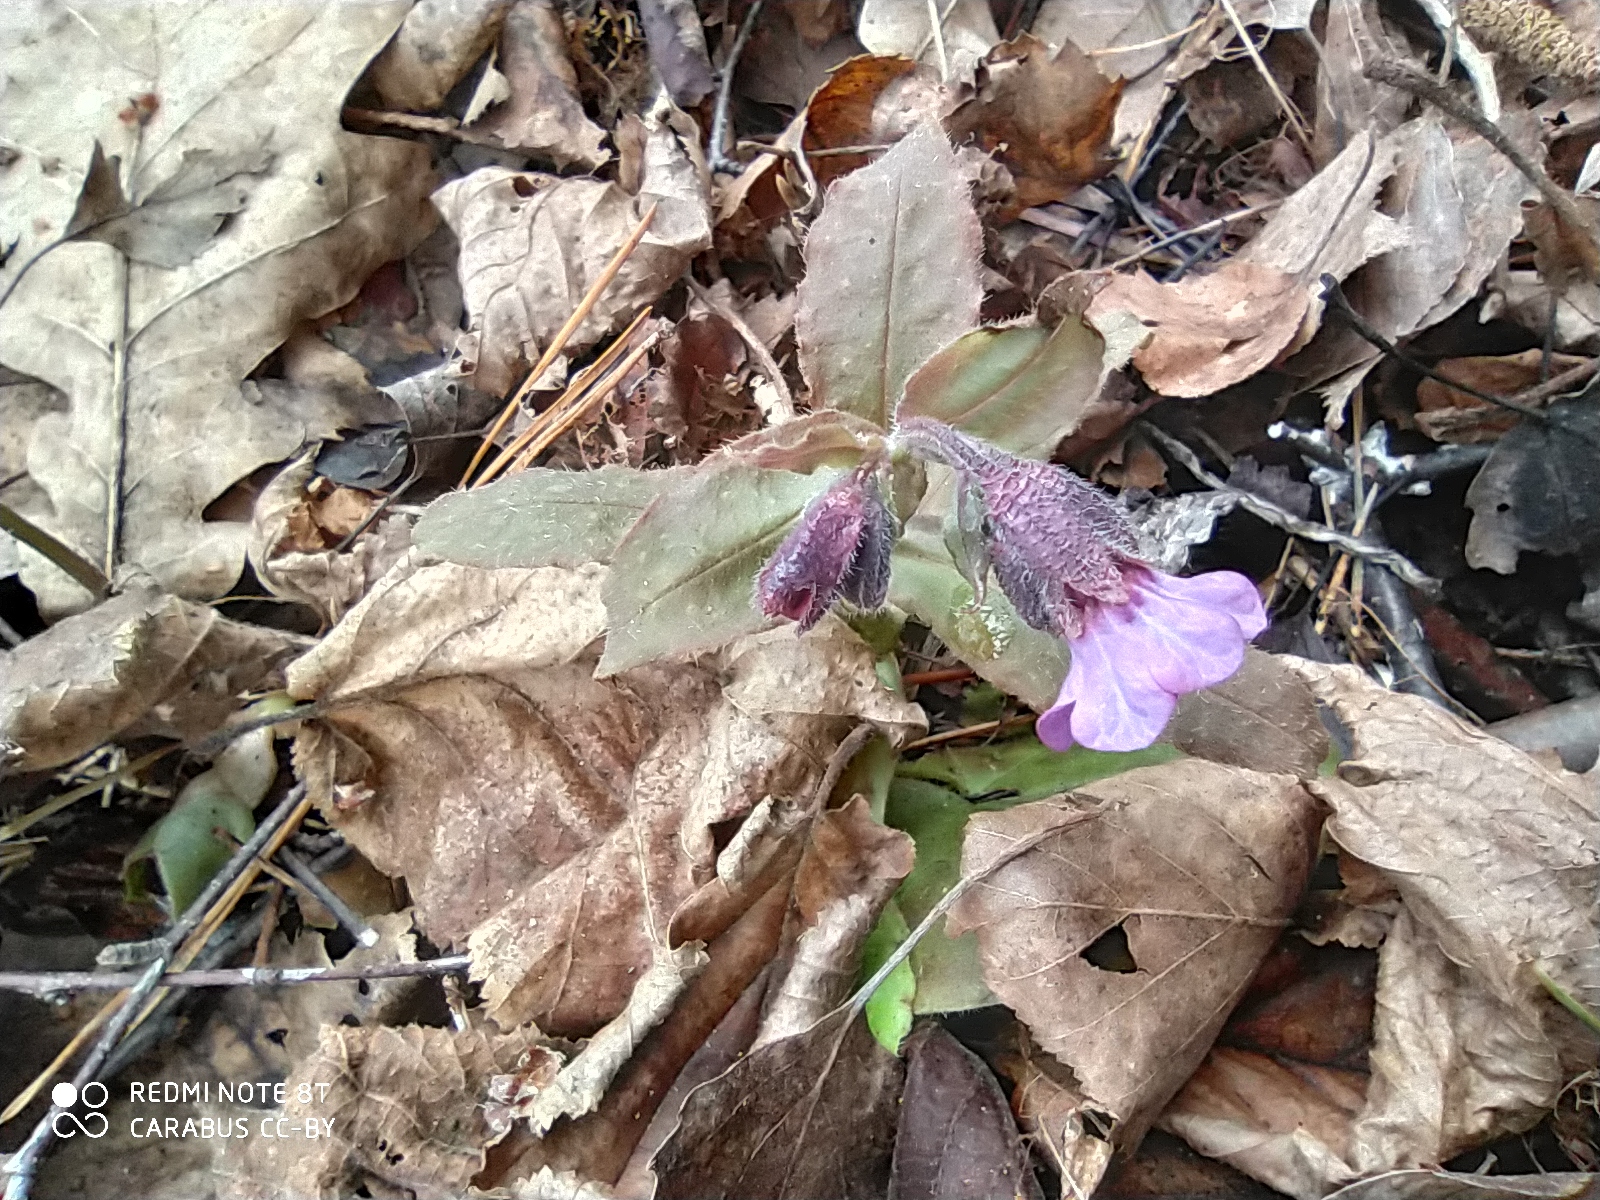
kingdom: Plantae
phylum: Tracheophyta
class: Magnoliopsida
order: Boraginales
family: Boraginaceae
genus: Pulmonaria
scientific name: Pulmonaria obscura
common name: Suffolk lungwort
